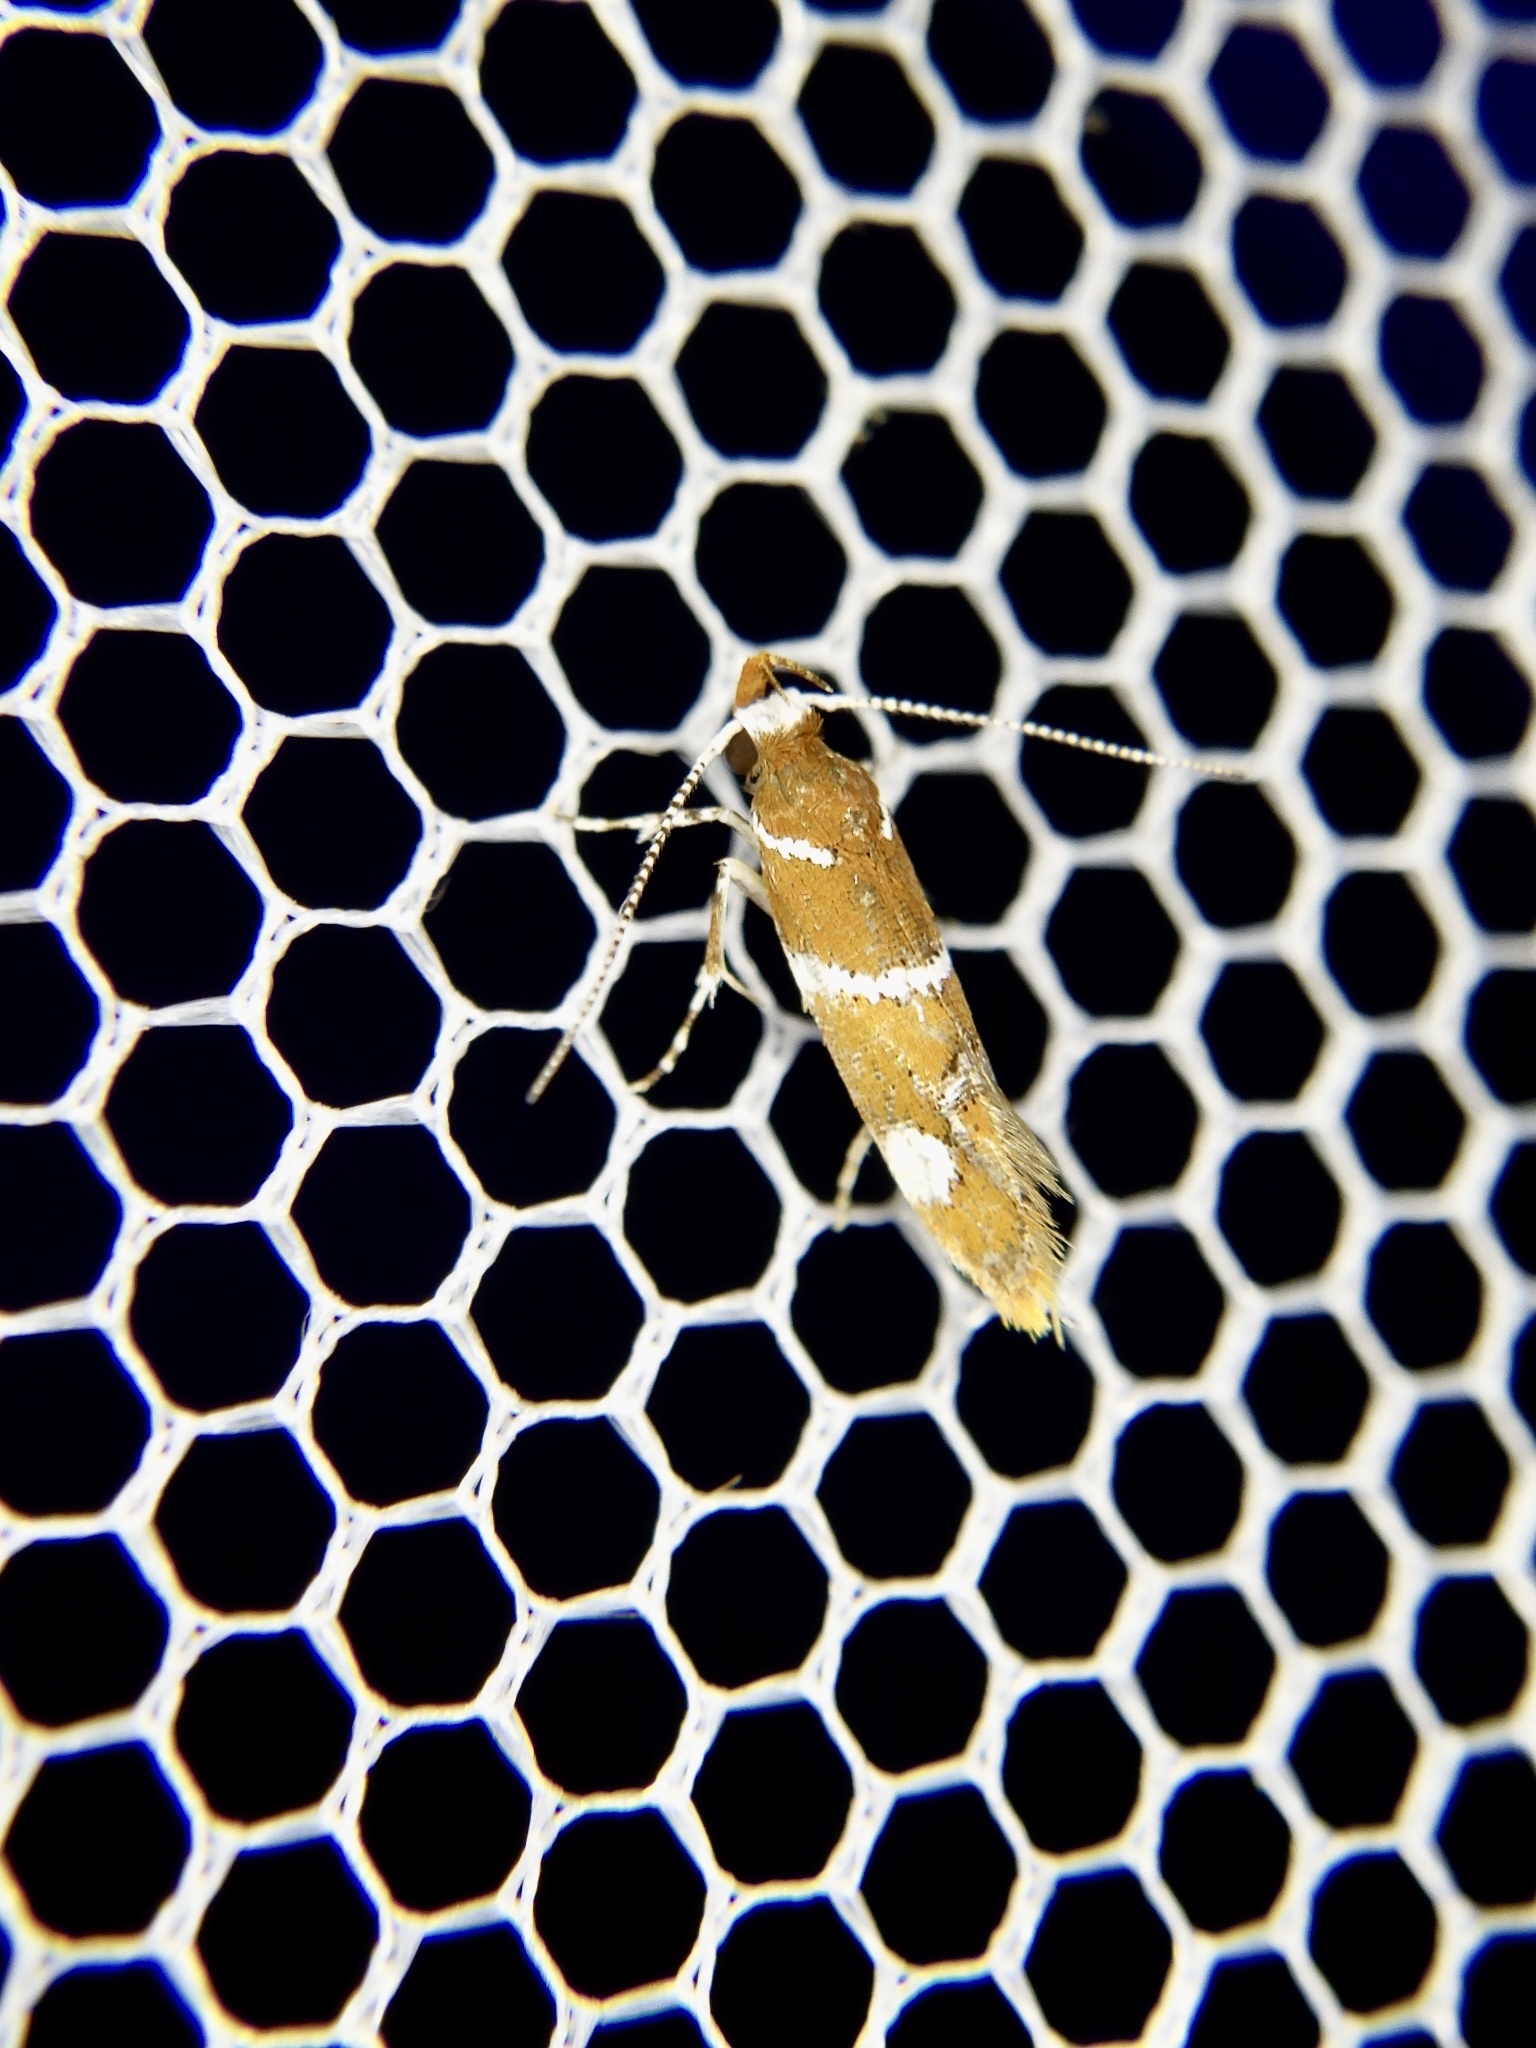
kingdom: Animalia
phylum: Arthropoda
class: Insecta
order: Lepidoptera
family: Oecophoridae
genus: Promalactis
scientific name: Promalactis suzukiella
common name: Moth
